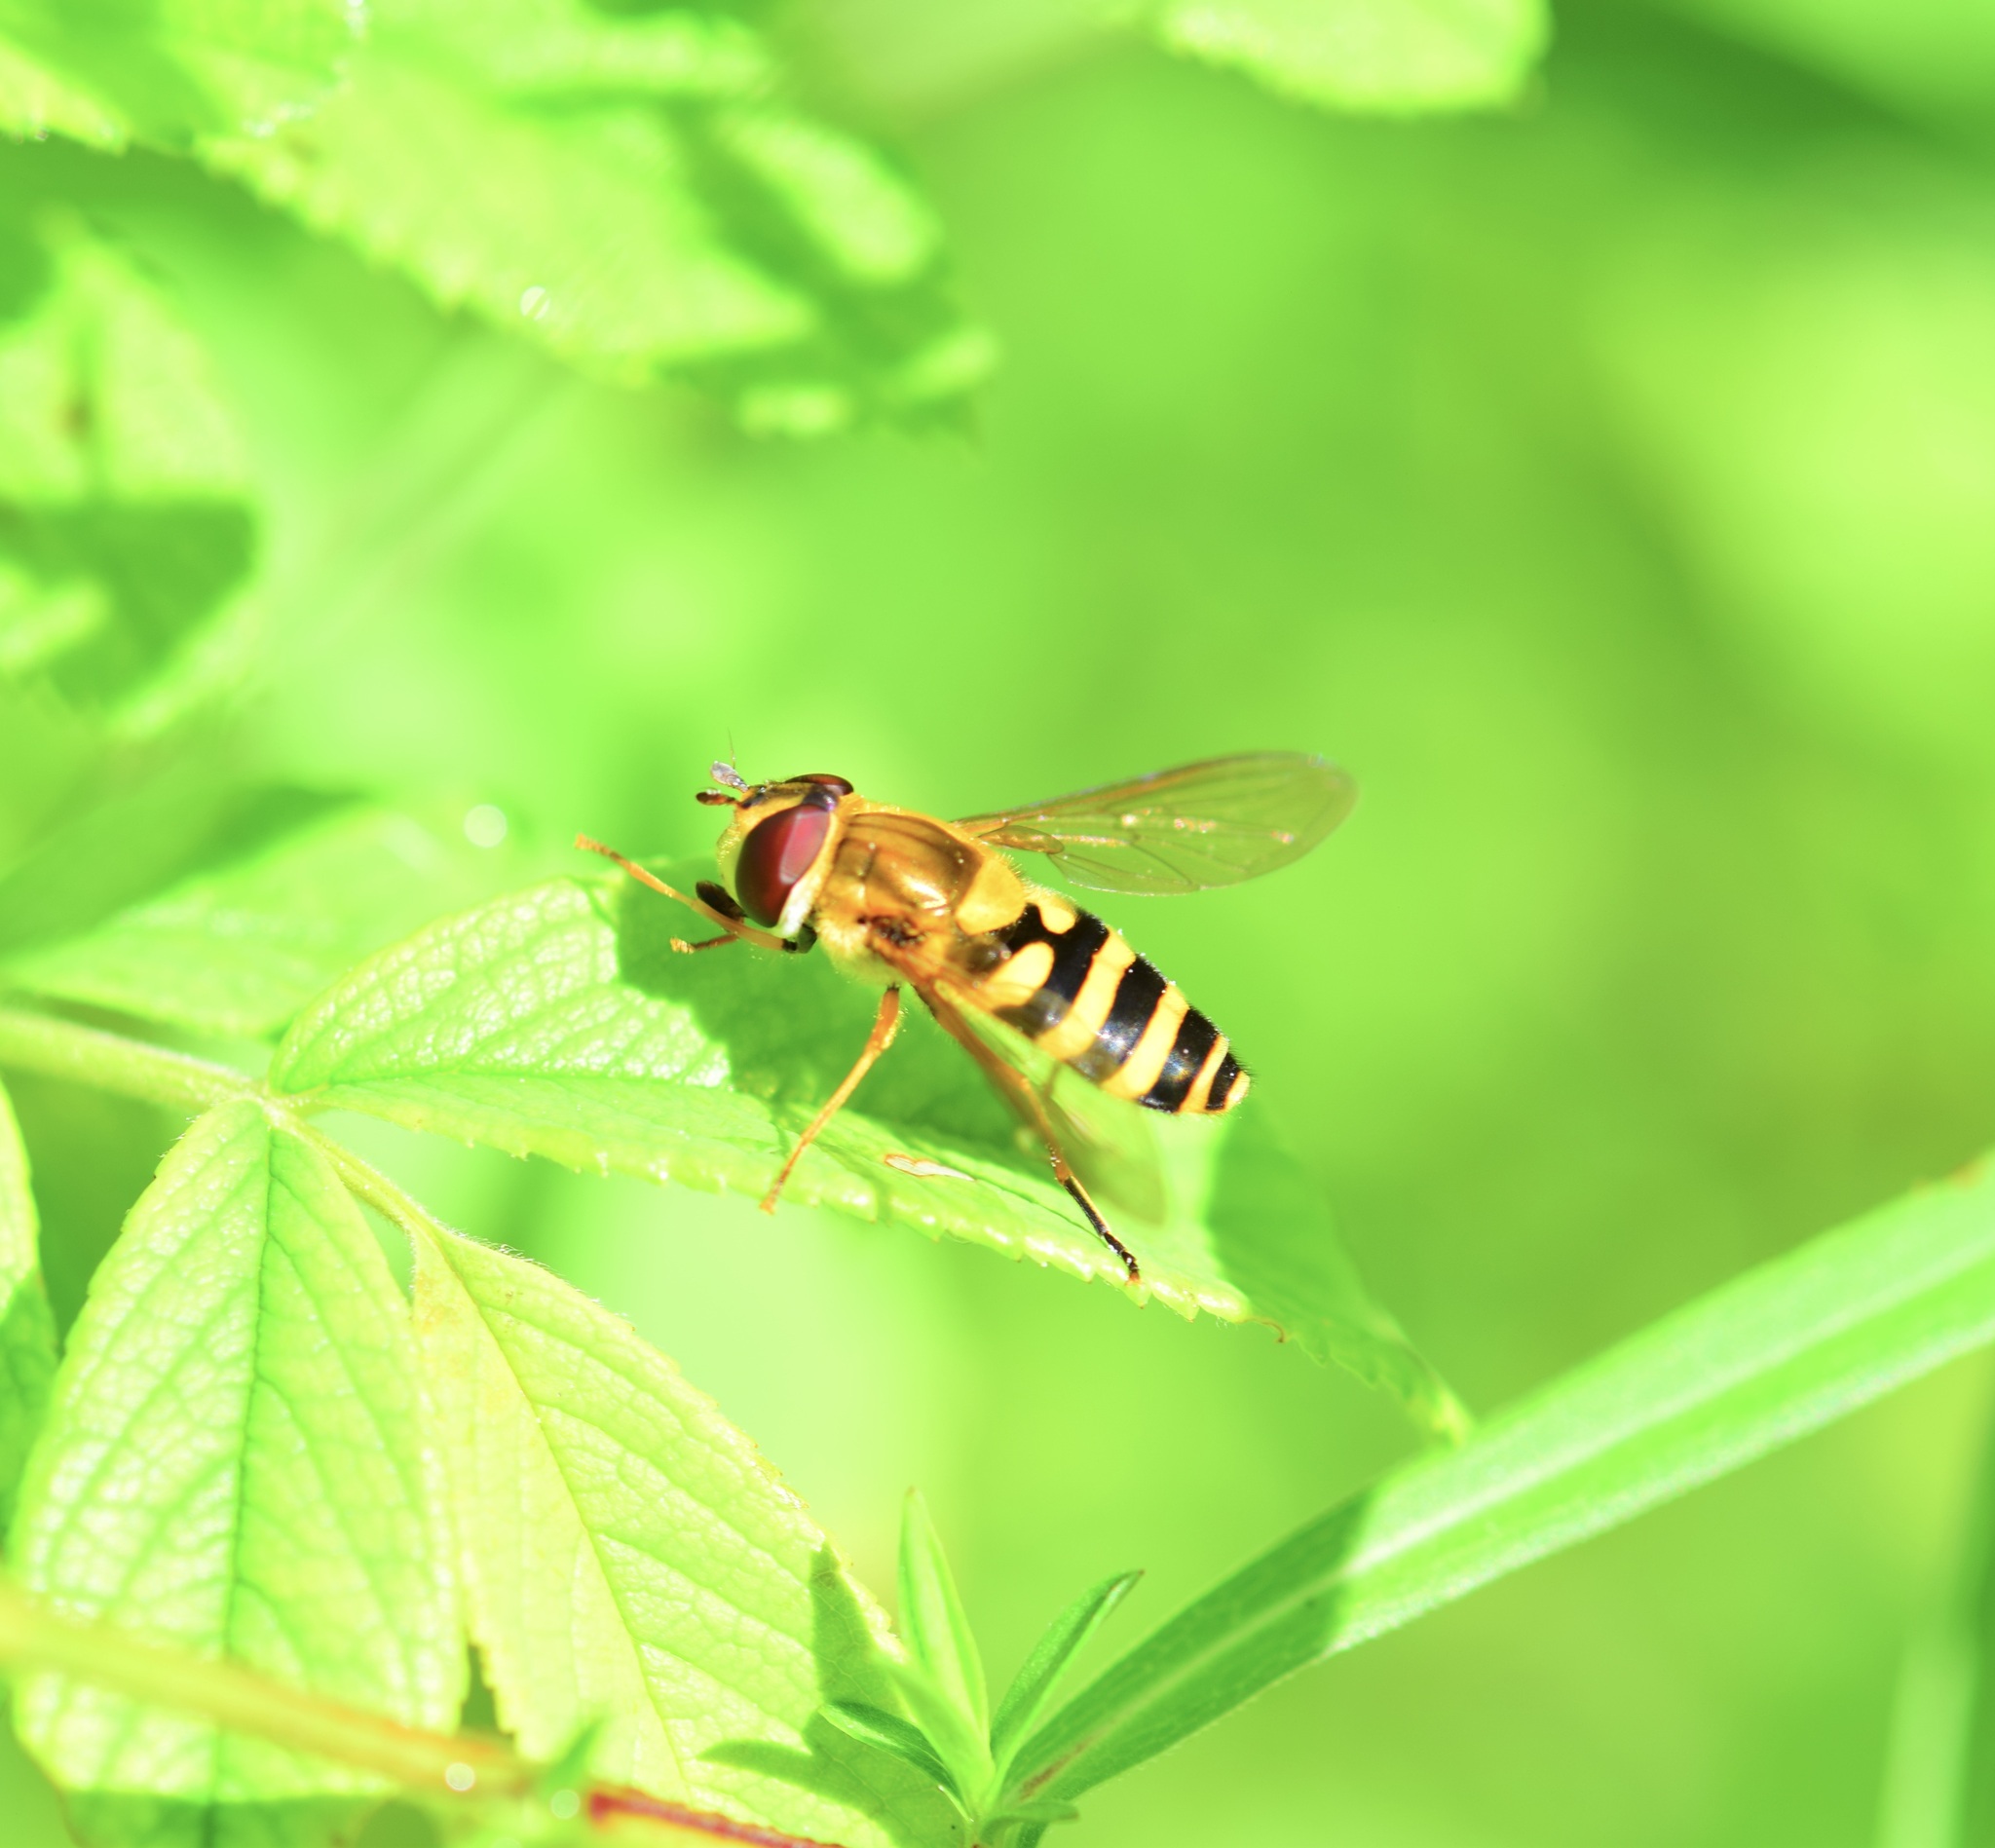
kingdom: Animalia
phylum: Arthropoda
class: Insecta
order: Diptera
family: Syrphidae
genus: Syrphus
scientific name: Syrphus rectus
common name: Yellow-legged flower fly
